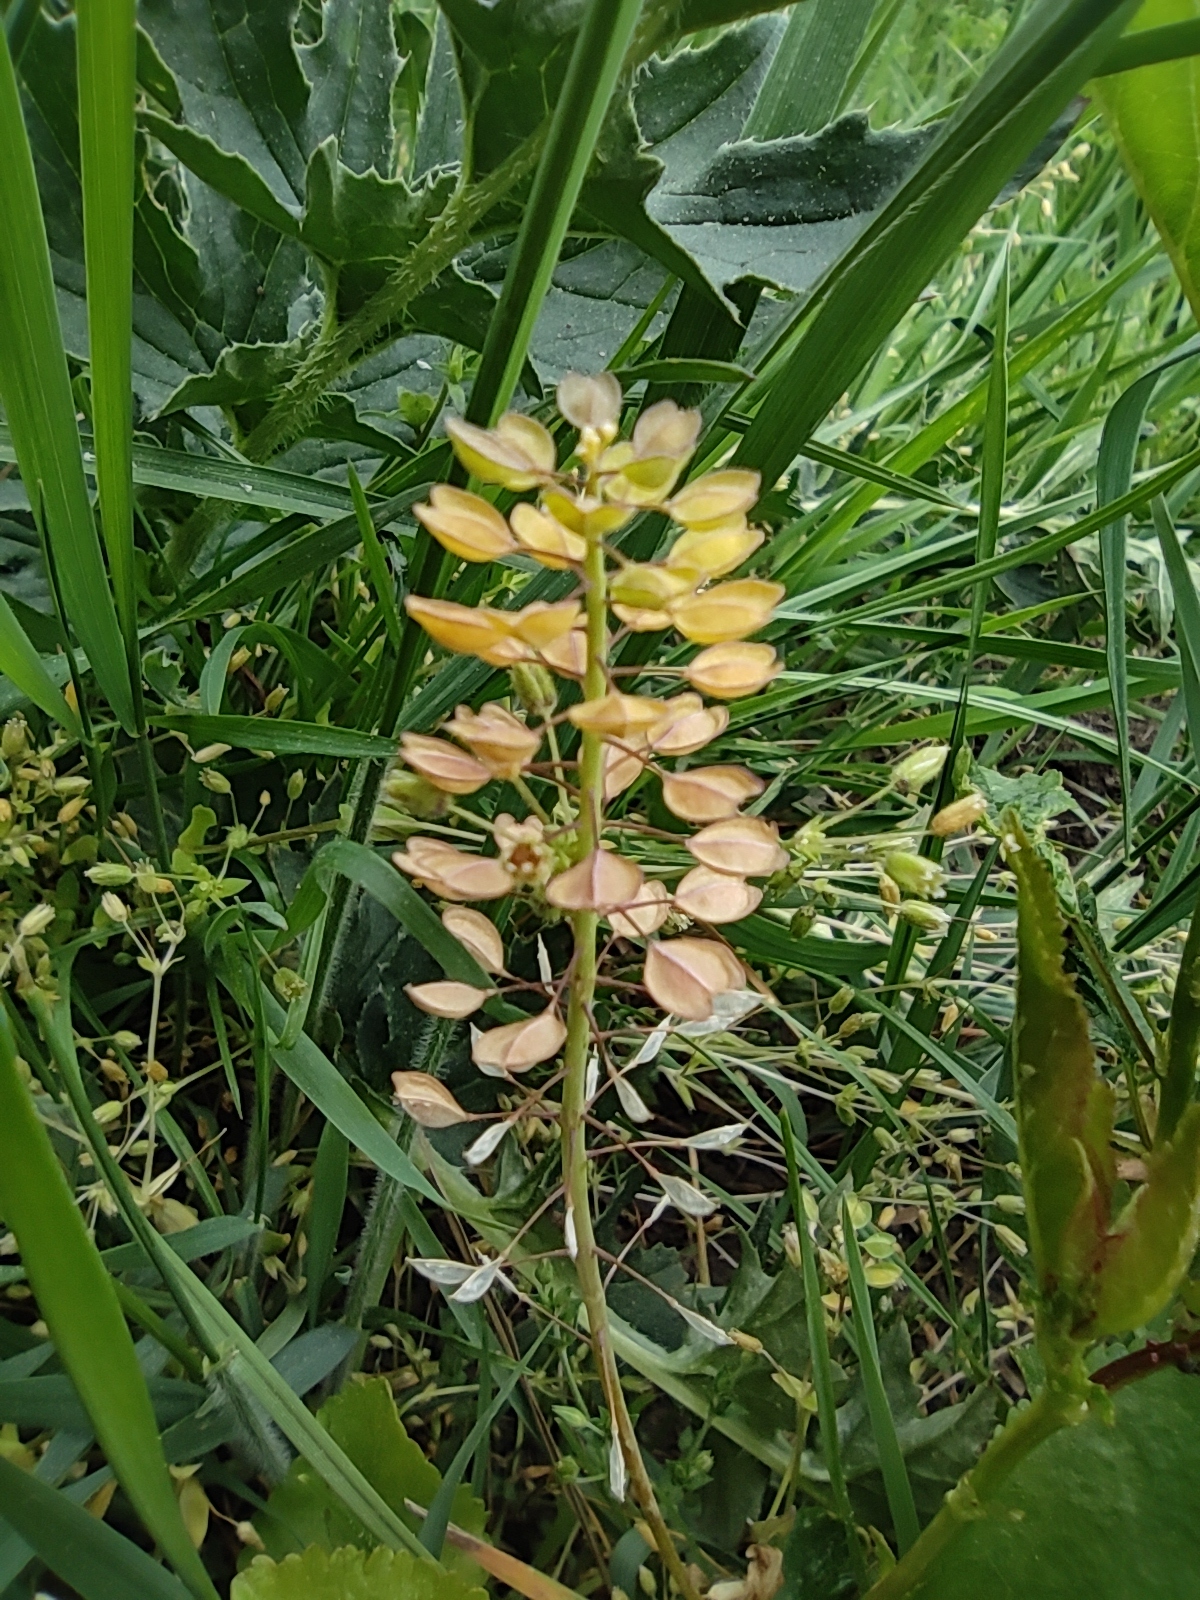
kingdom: Plantae
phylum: Tracheophyta
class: Magnoliopsida
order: Brassicales
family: Brassicaceae
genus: Noccaea
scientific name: Noccaea perfoliata
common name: Perfoliate pennycress
